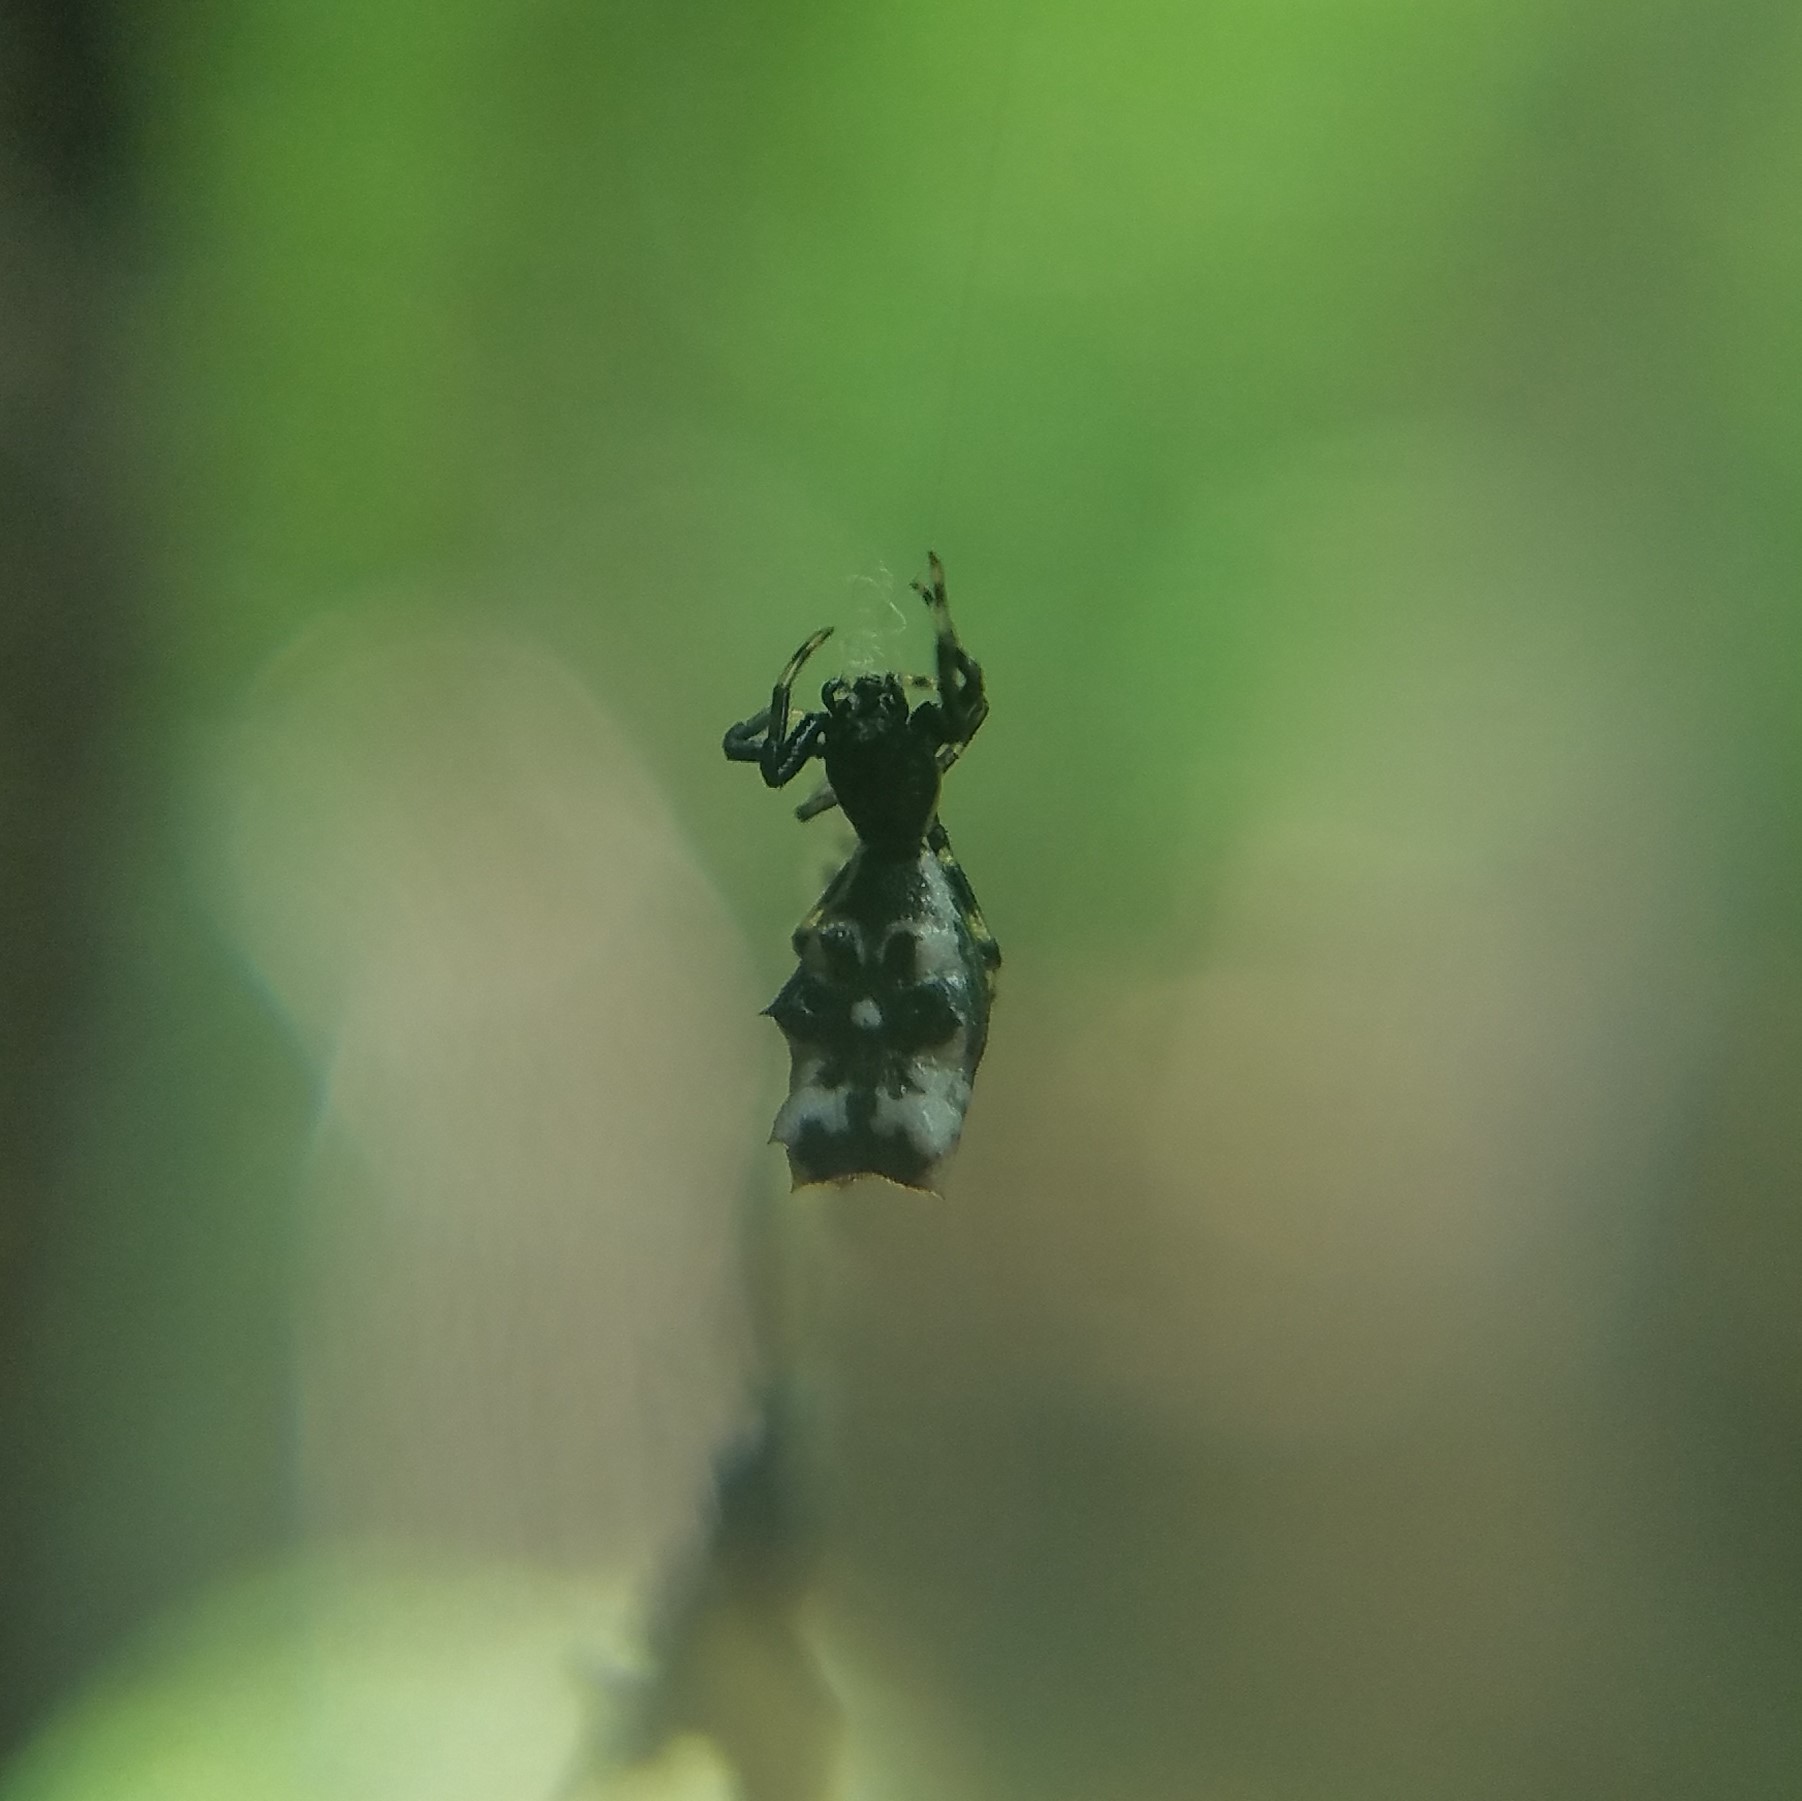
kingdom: Animalia
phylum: Arthropoda
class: Arachnida
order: Araneae
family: Araneidae
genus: Micrathena
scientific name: Micrathena gracilis
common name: Orb weavers
